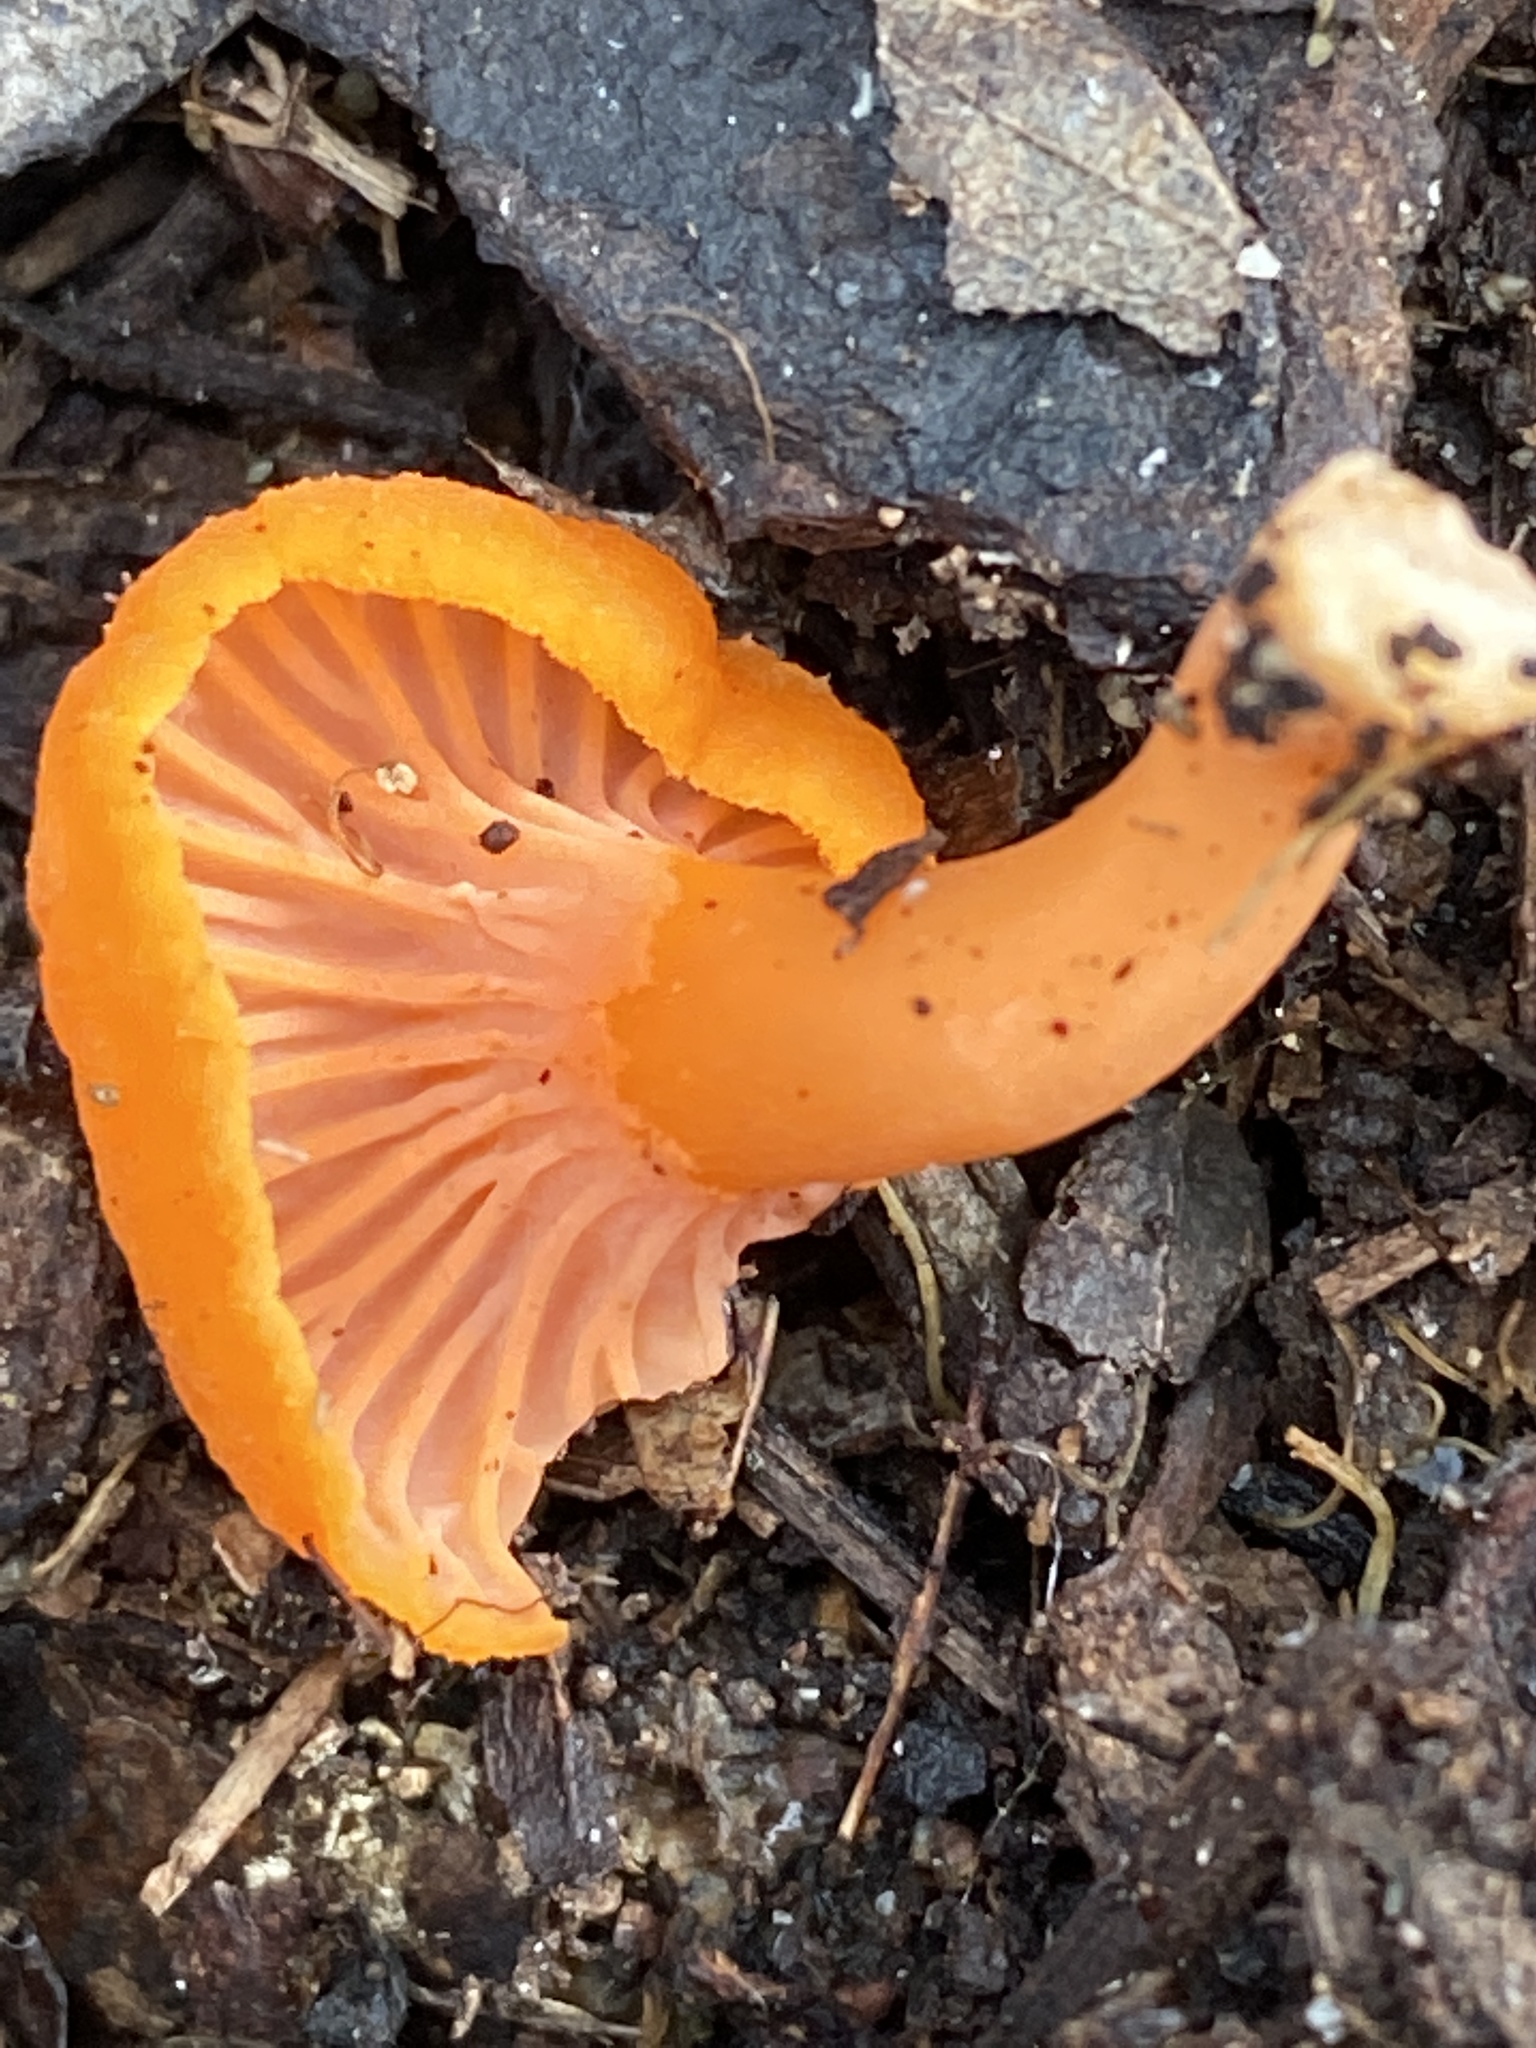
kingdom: Fungi
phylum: Basidiomycota
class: Agaricomycetes
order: Cantharellales
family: Hydnaceae
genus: Cantharellus
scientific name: Cantharellus
